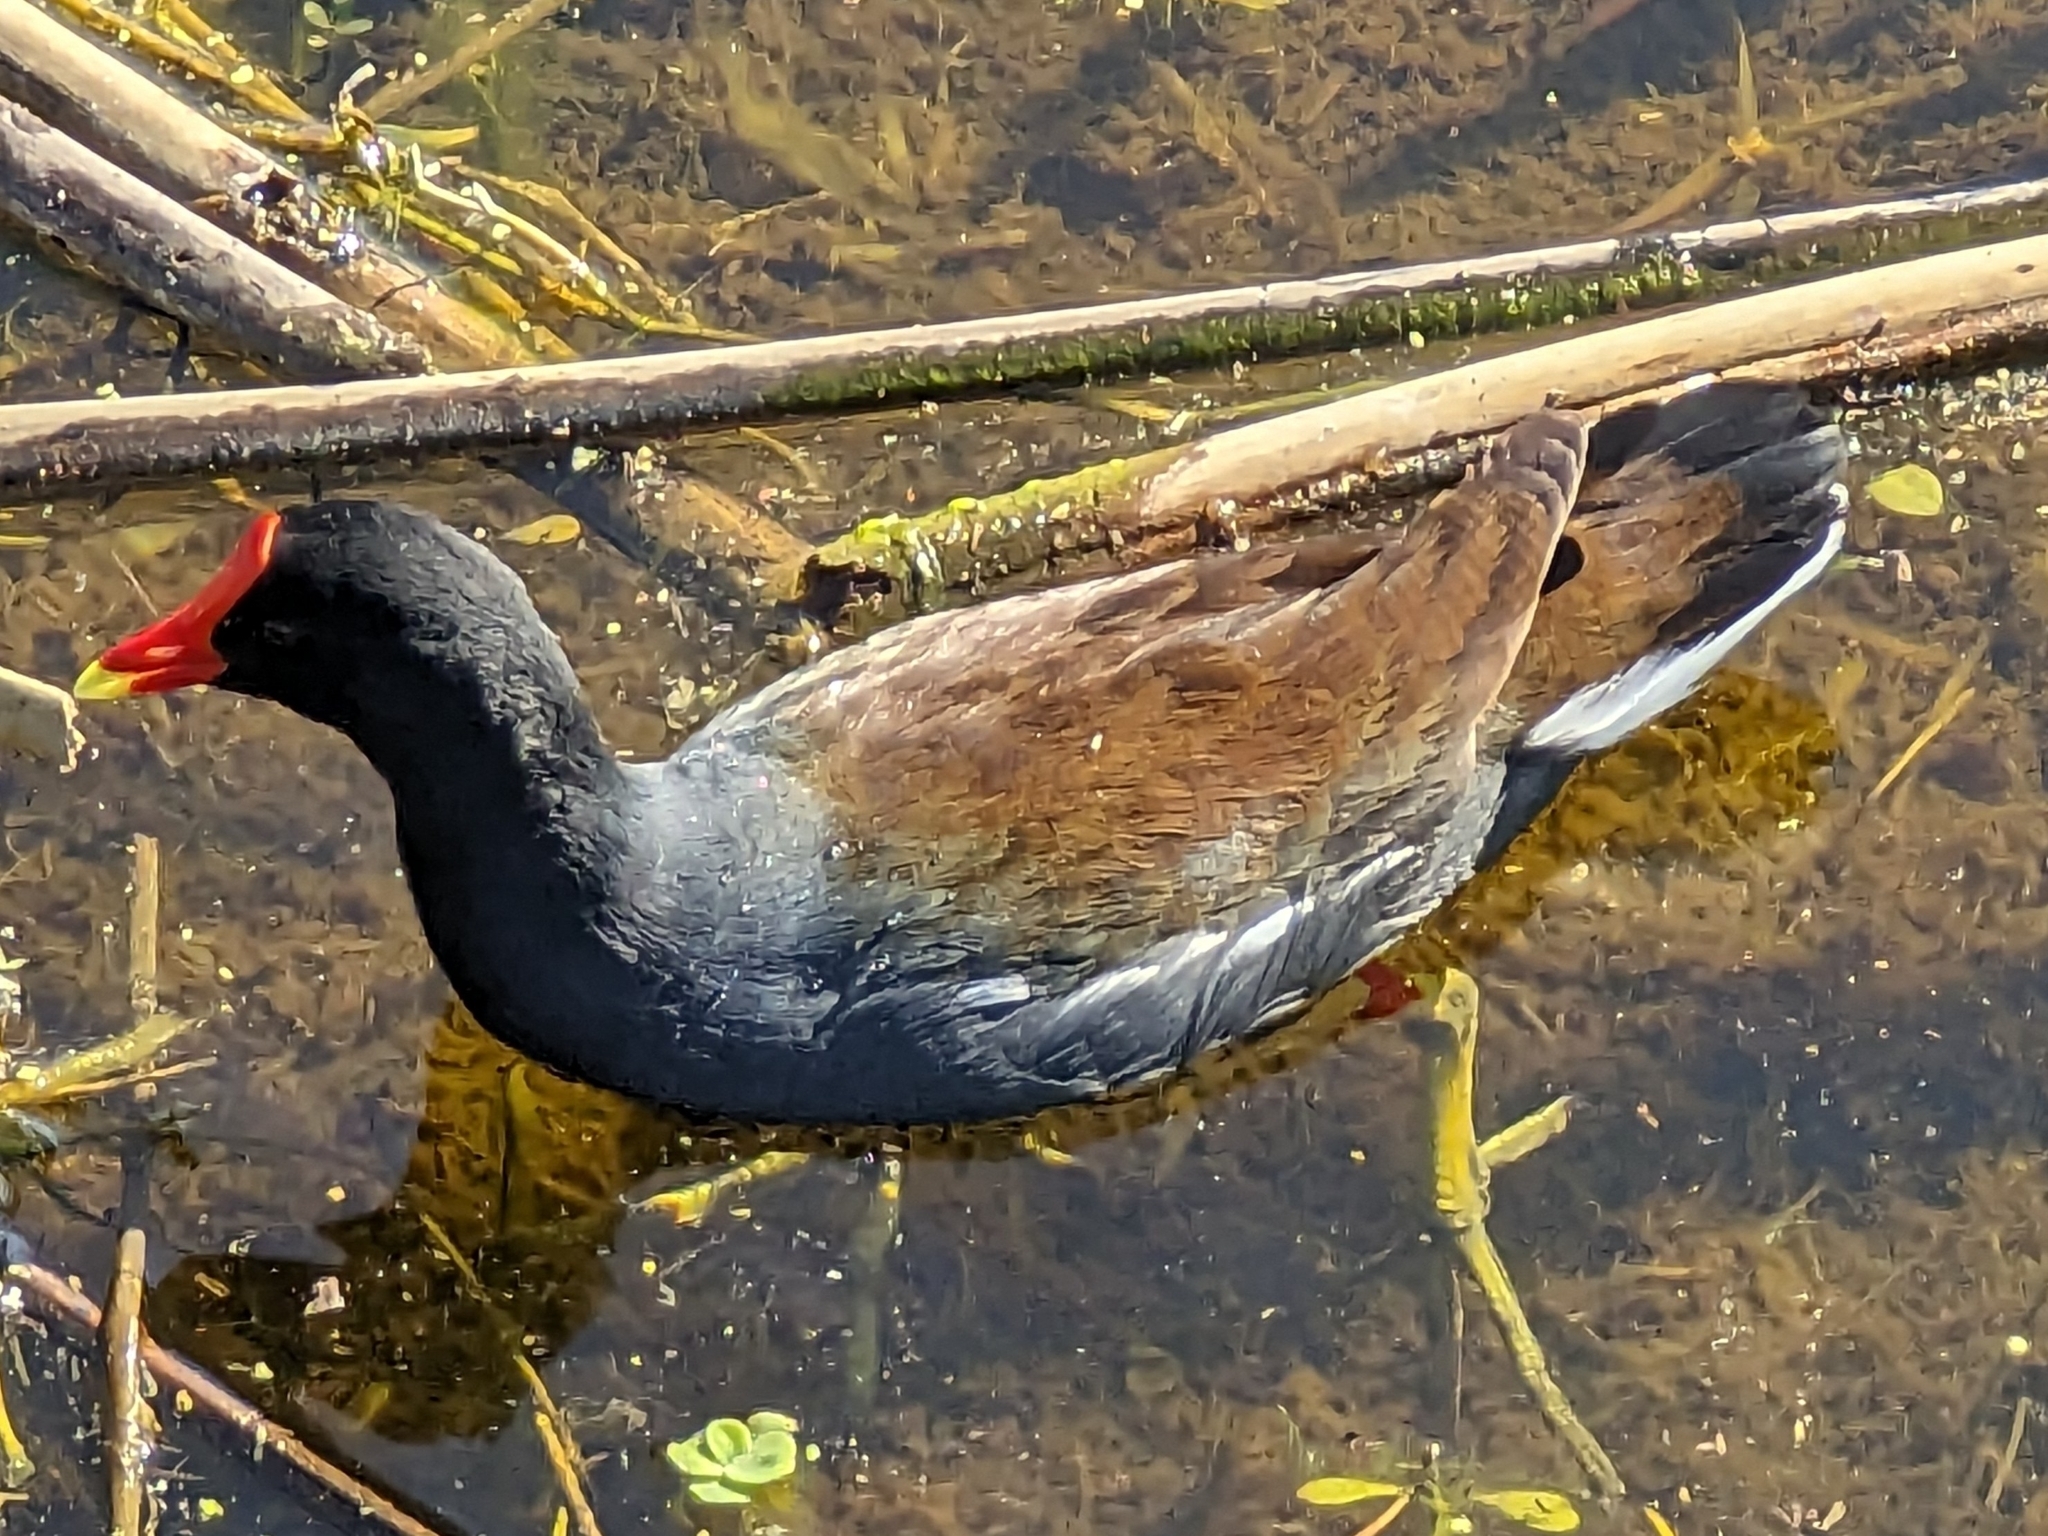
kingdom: Animalia
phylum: Chordata
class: Aves
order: Gruiformes
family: Rallidae
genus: Gallinula
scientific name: Gallinula chloropus
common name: Common moorhen
